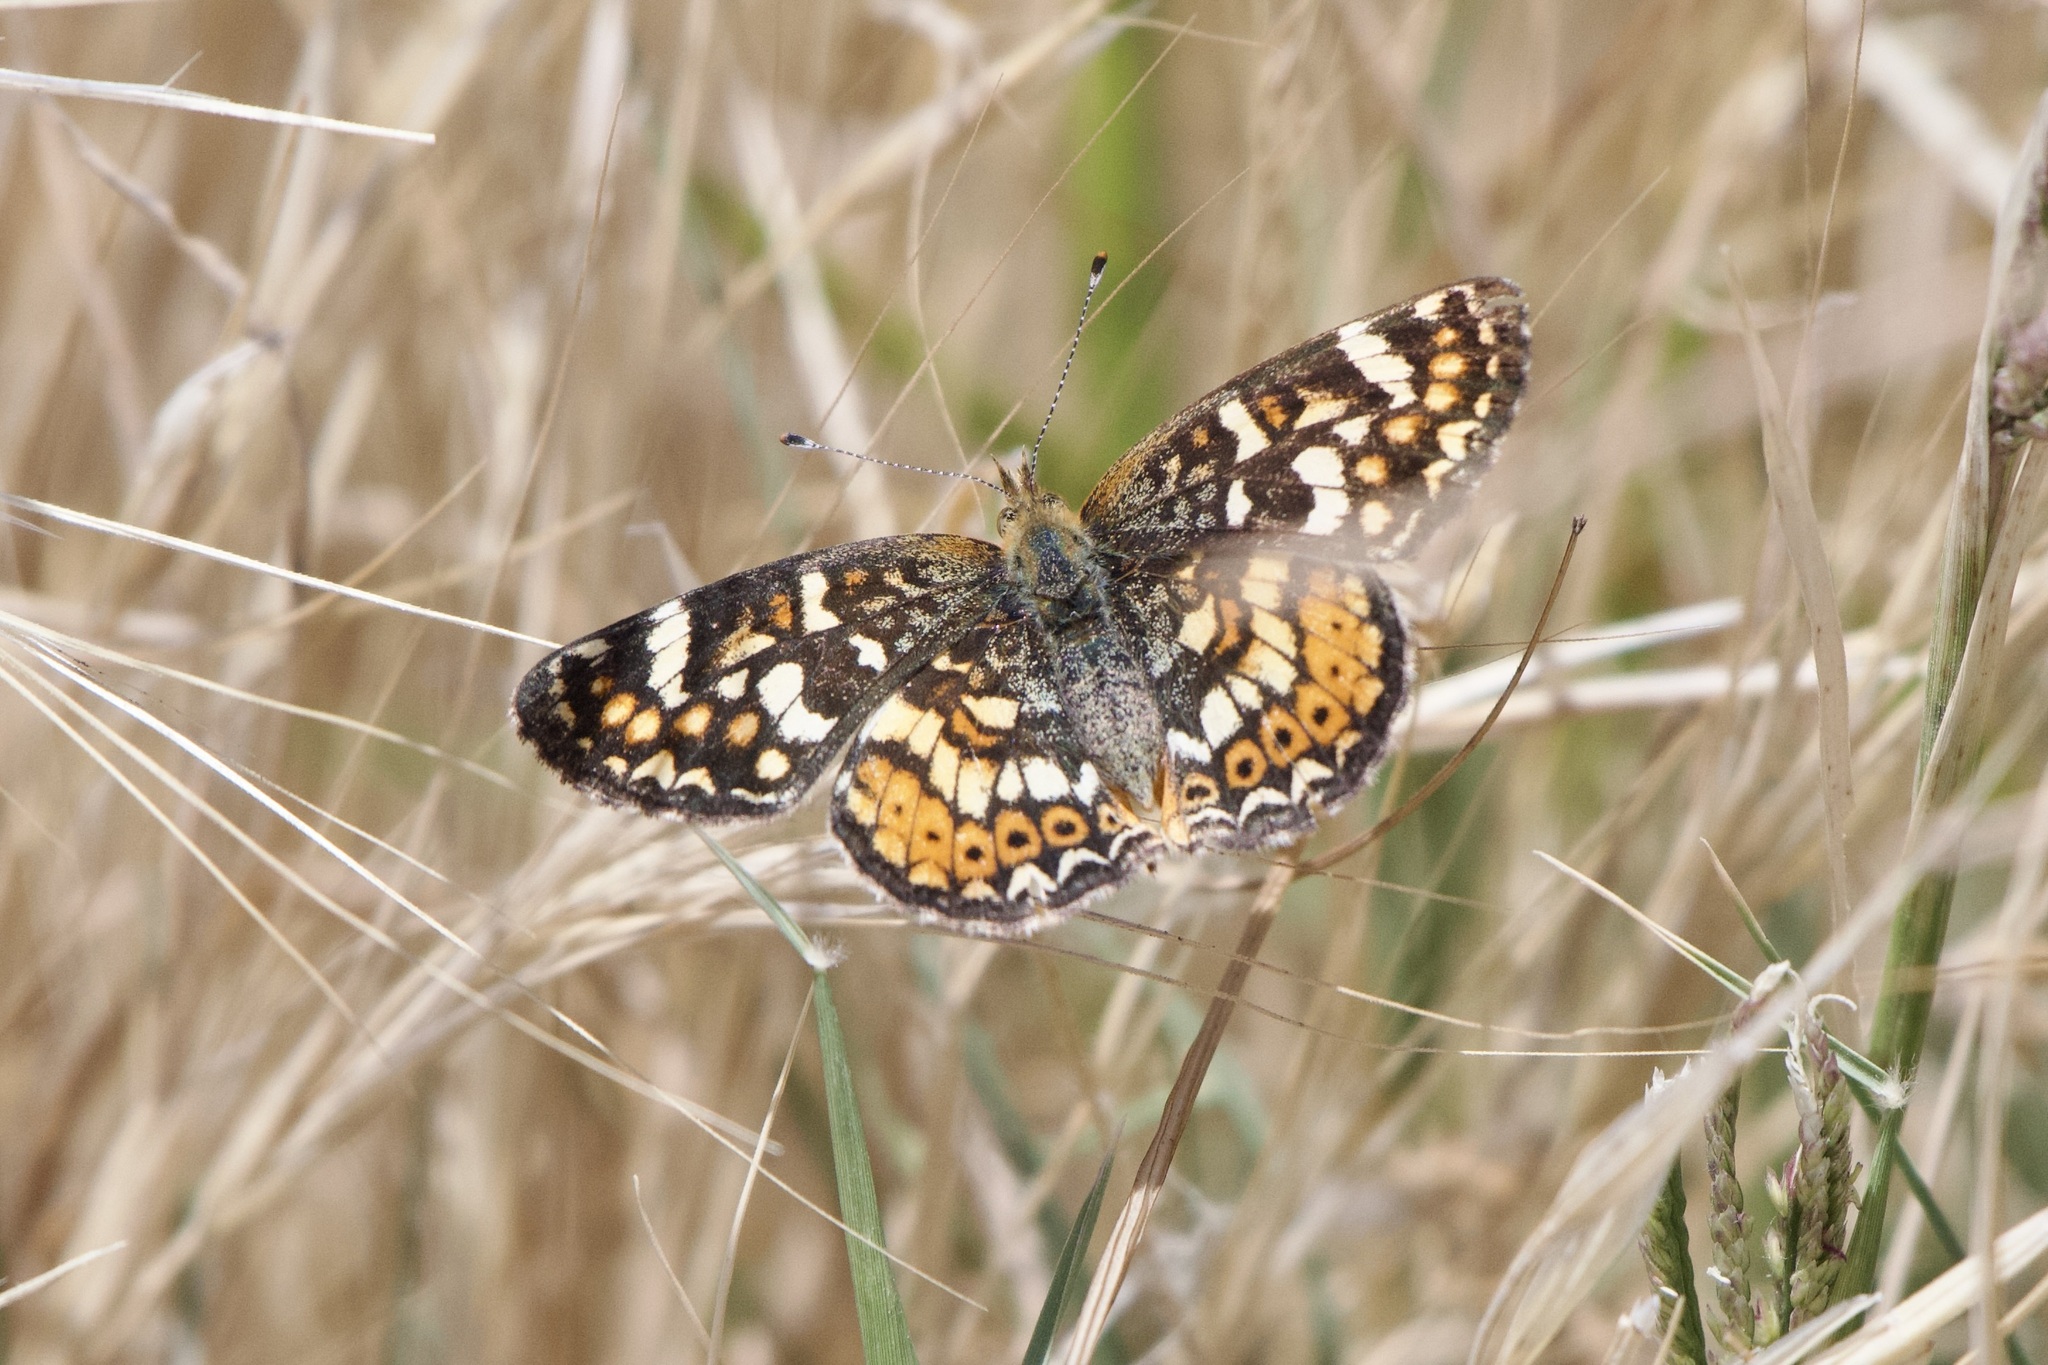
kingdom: Animalia
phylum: Arthropoda
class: Insecta
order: Lepidoptera
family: Nymphalidae
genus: Phyciodes
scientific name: Phyciodes tharos
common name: Pearl crescent
